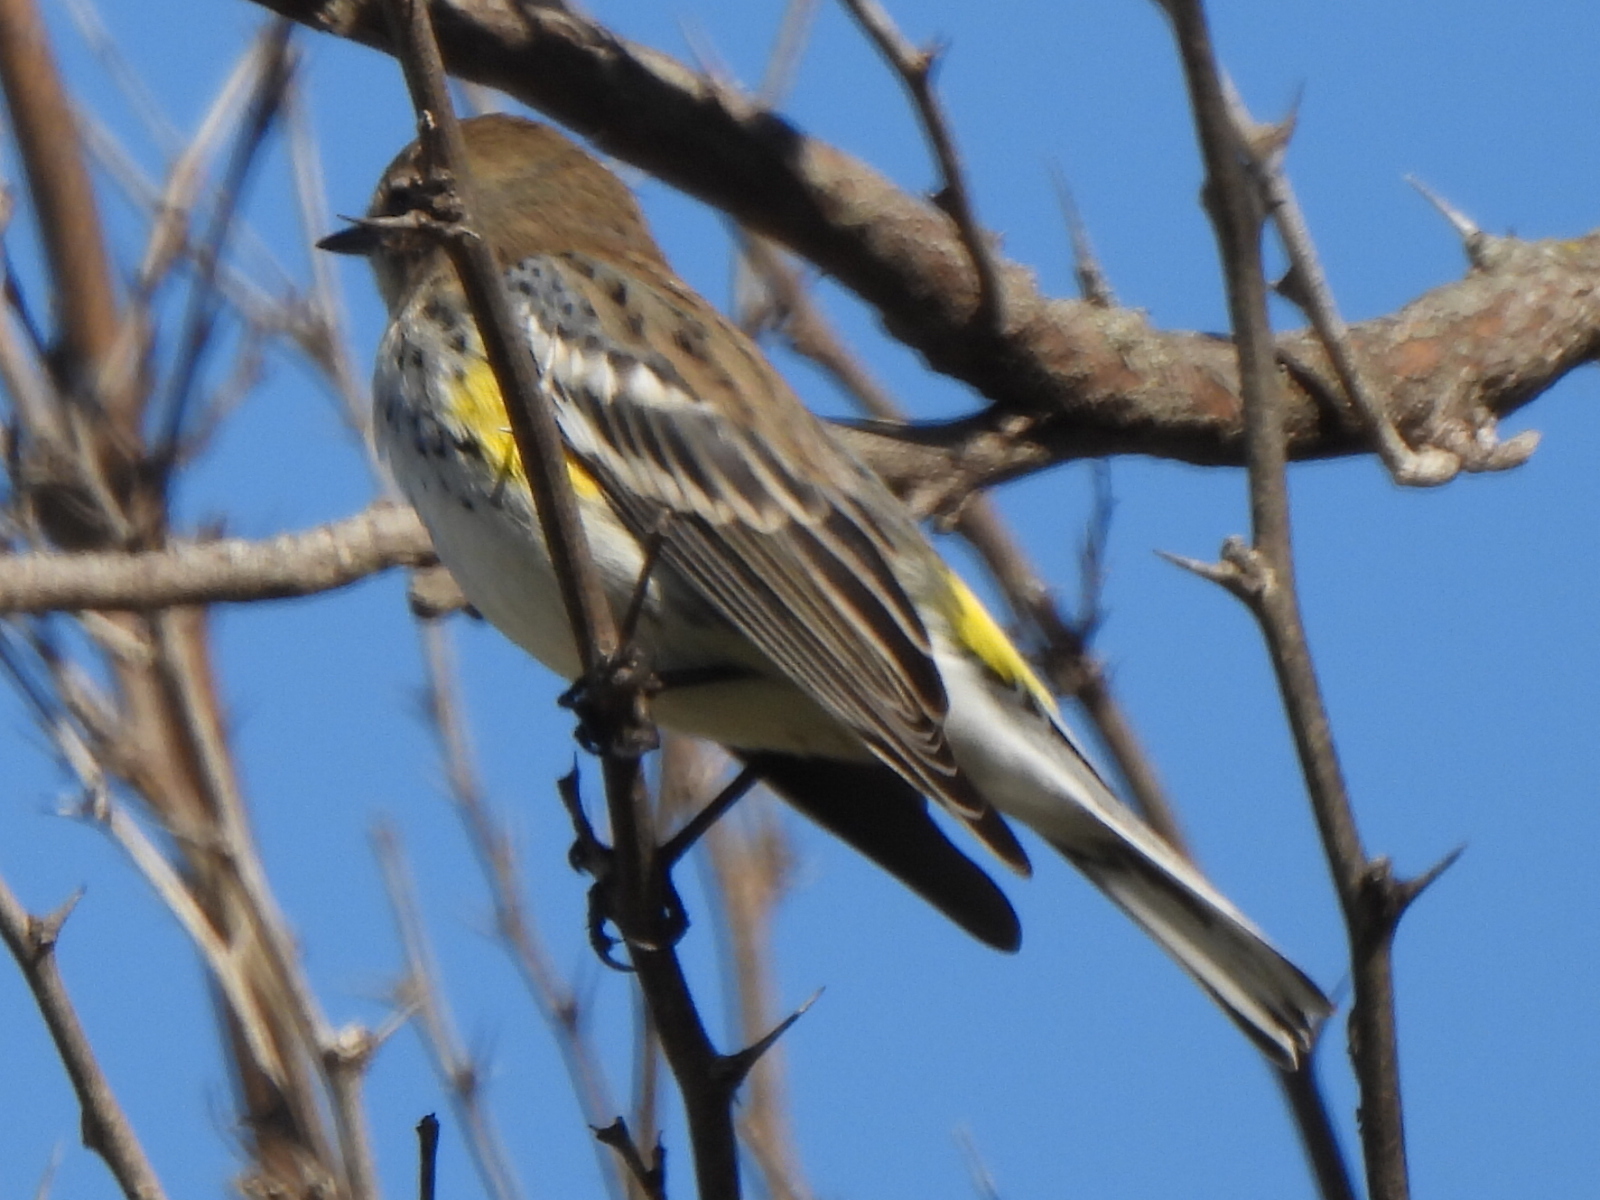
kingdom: Animalia
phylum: Chordata
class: Aves
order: Passeriformes
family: Parulidae
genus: Setophaga
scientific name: Setophaga coronata
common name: Myrtle warbler
